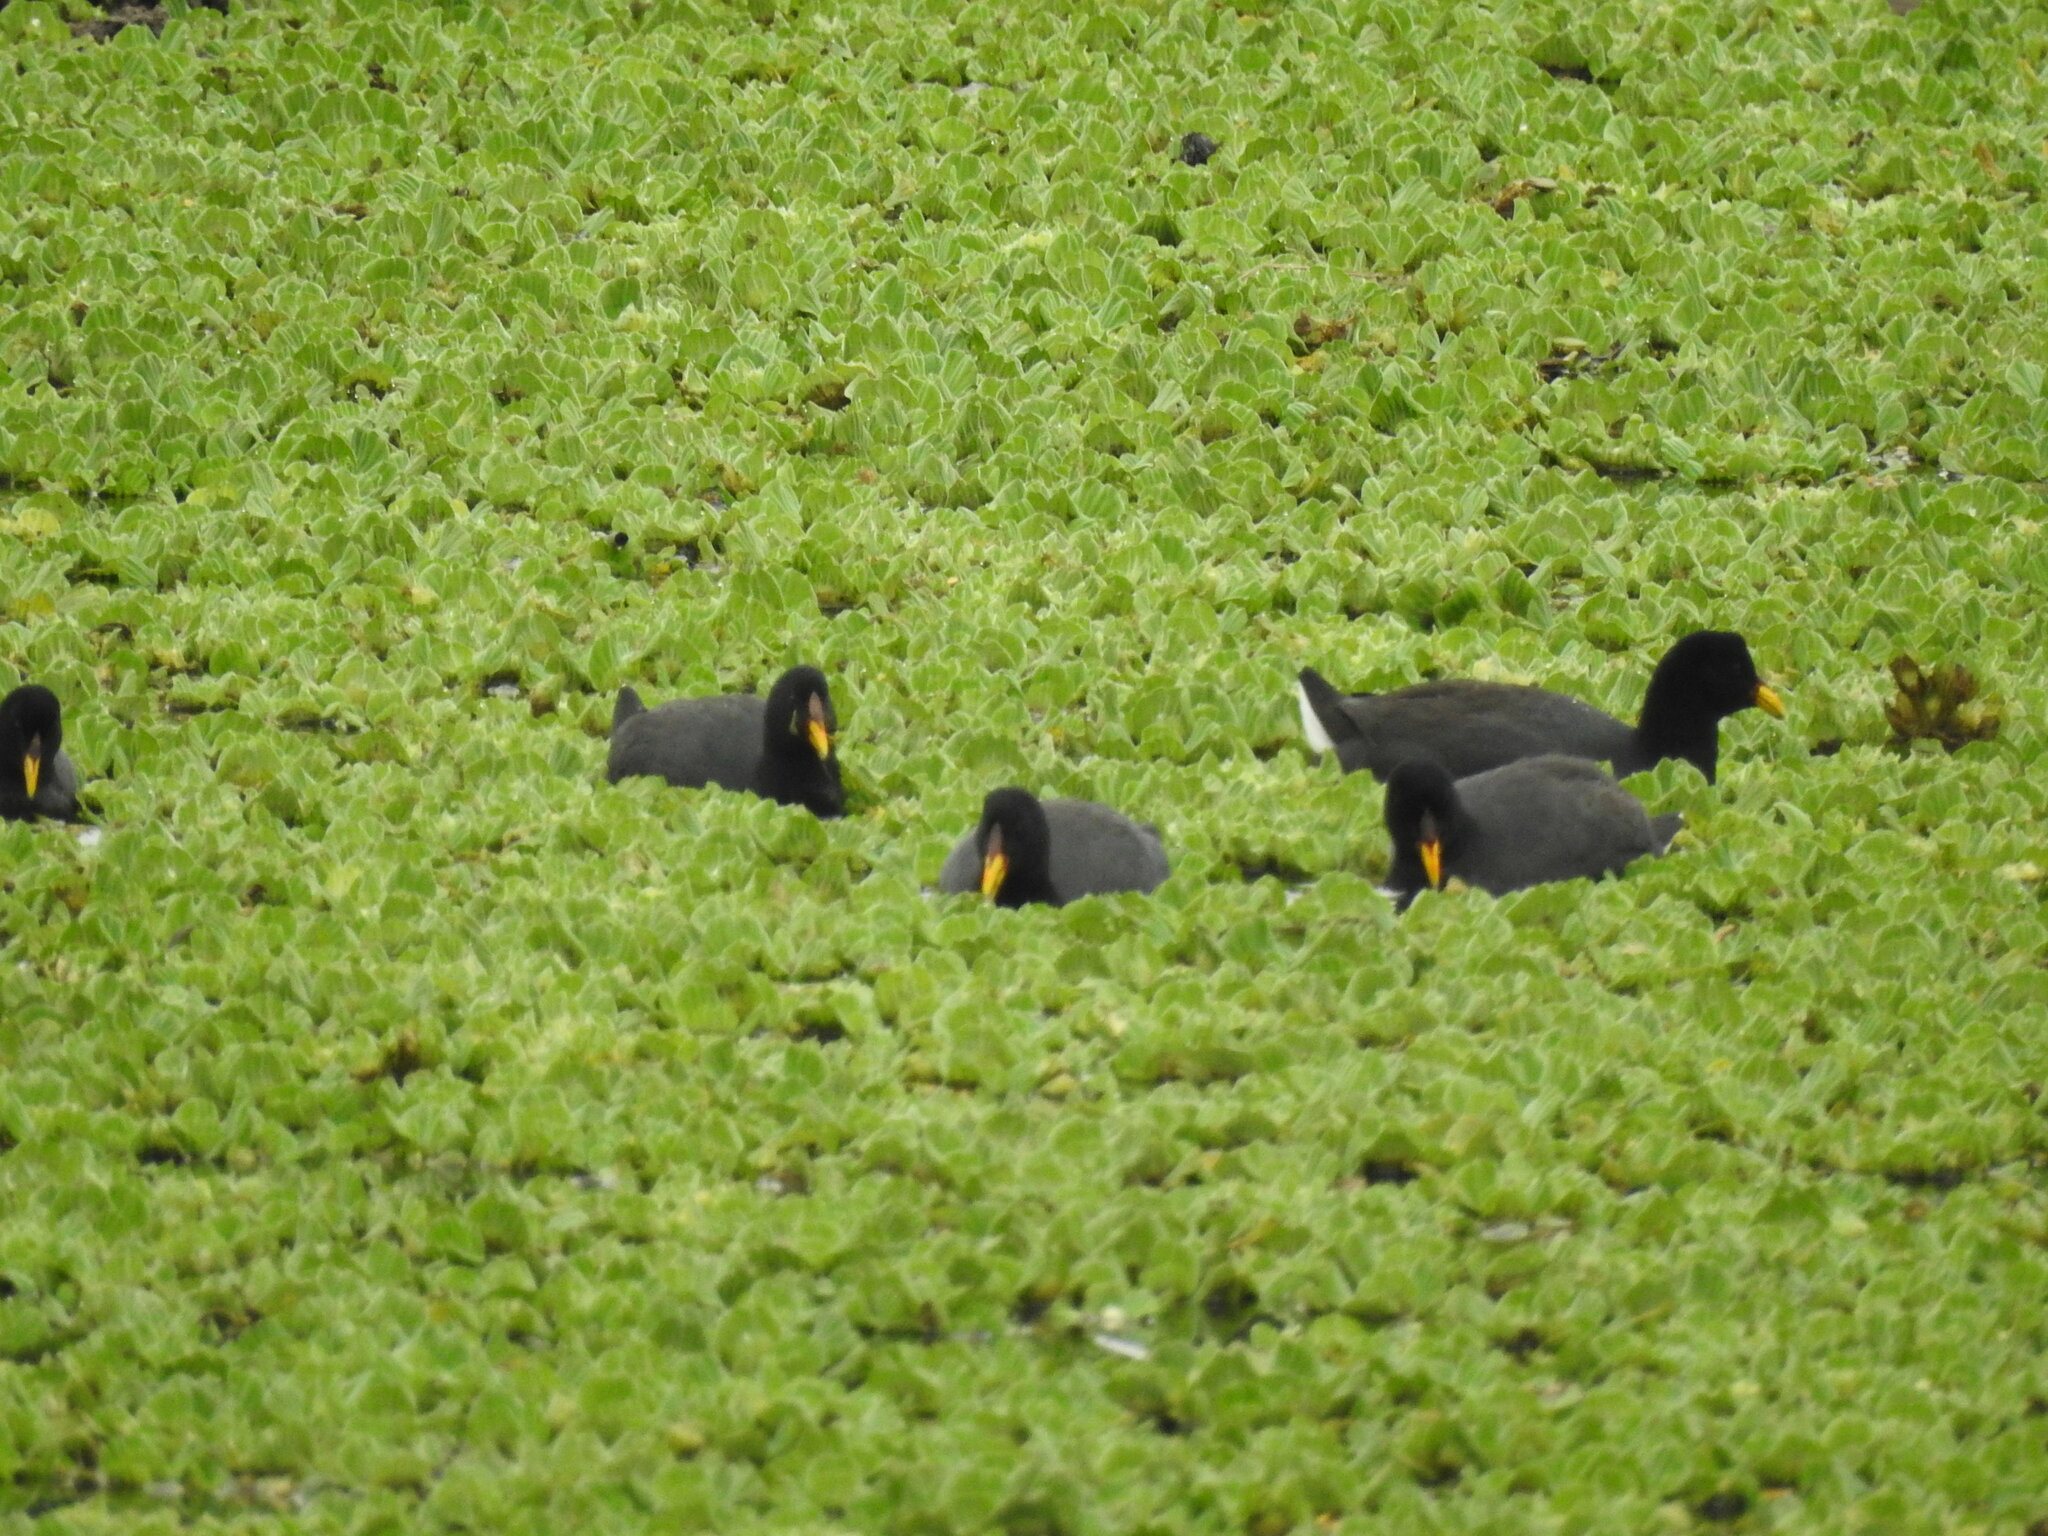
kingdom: Animalia
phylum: Chordata
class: Aves
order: Gruiformes
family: Rallidae
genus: Fulica
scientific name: Fulica rufifrons
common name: Red-fronted coot
